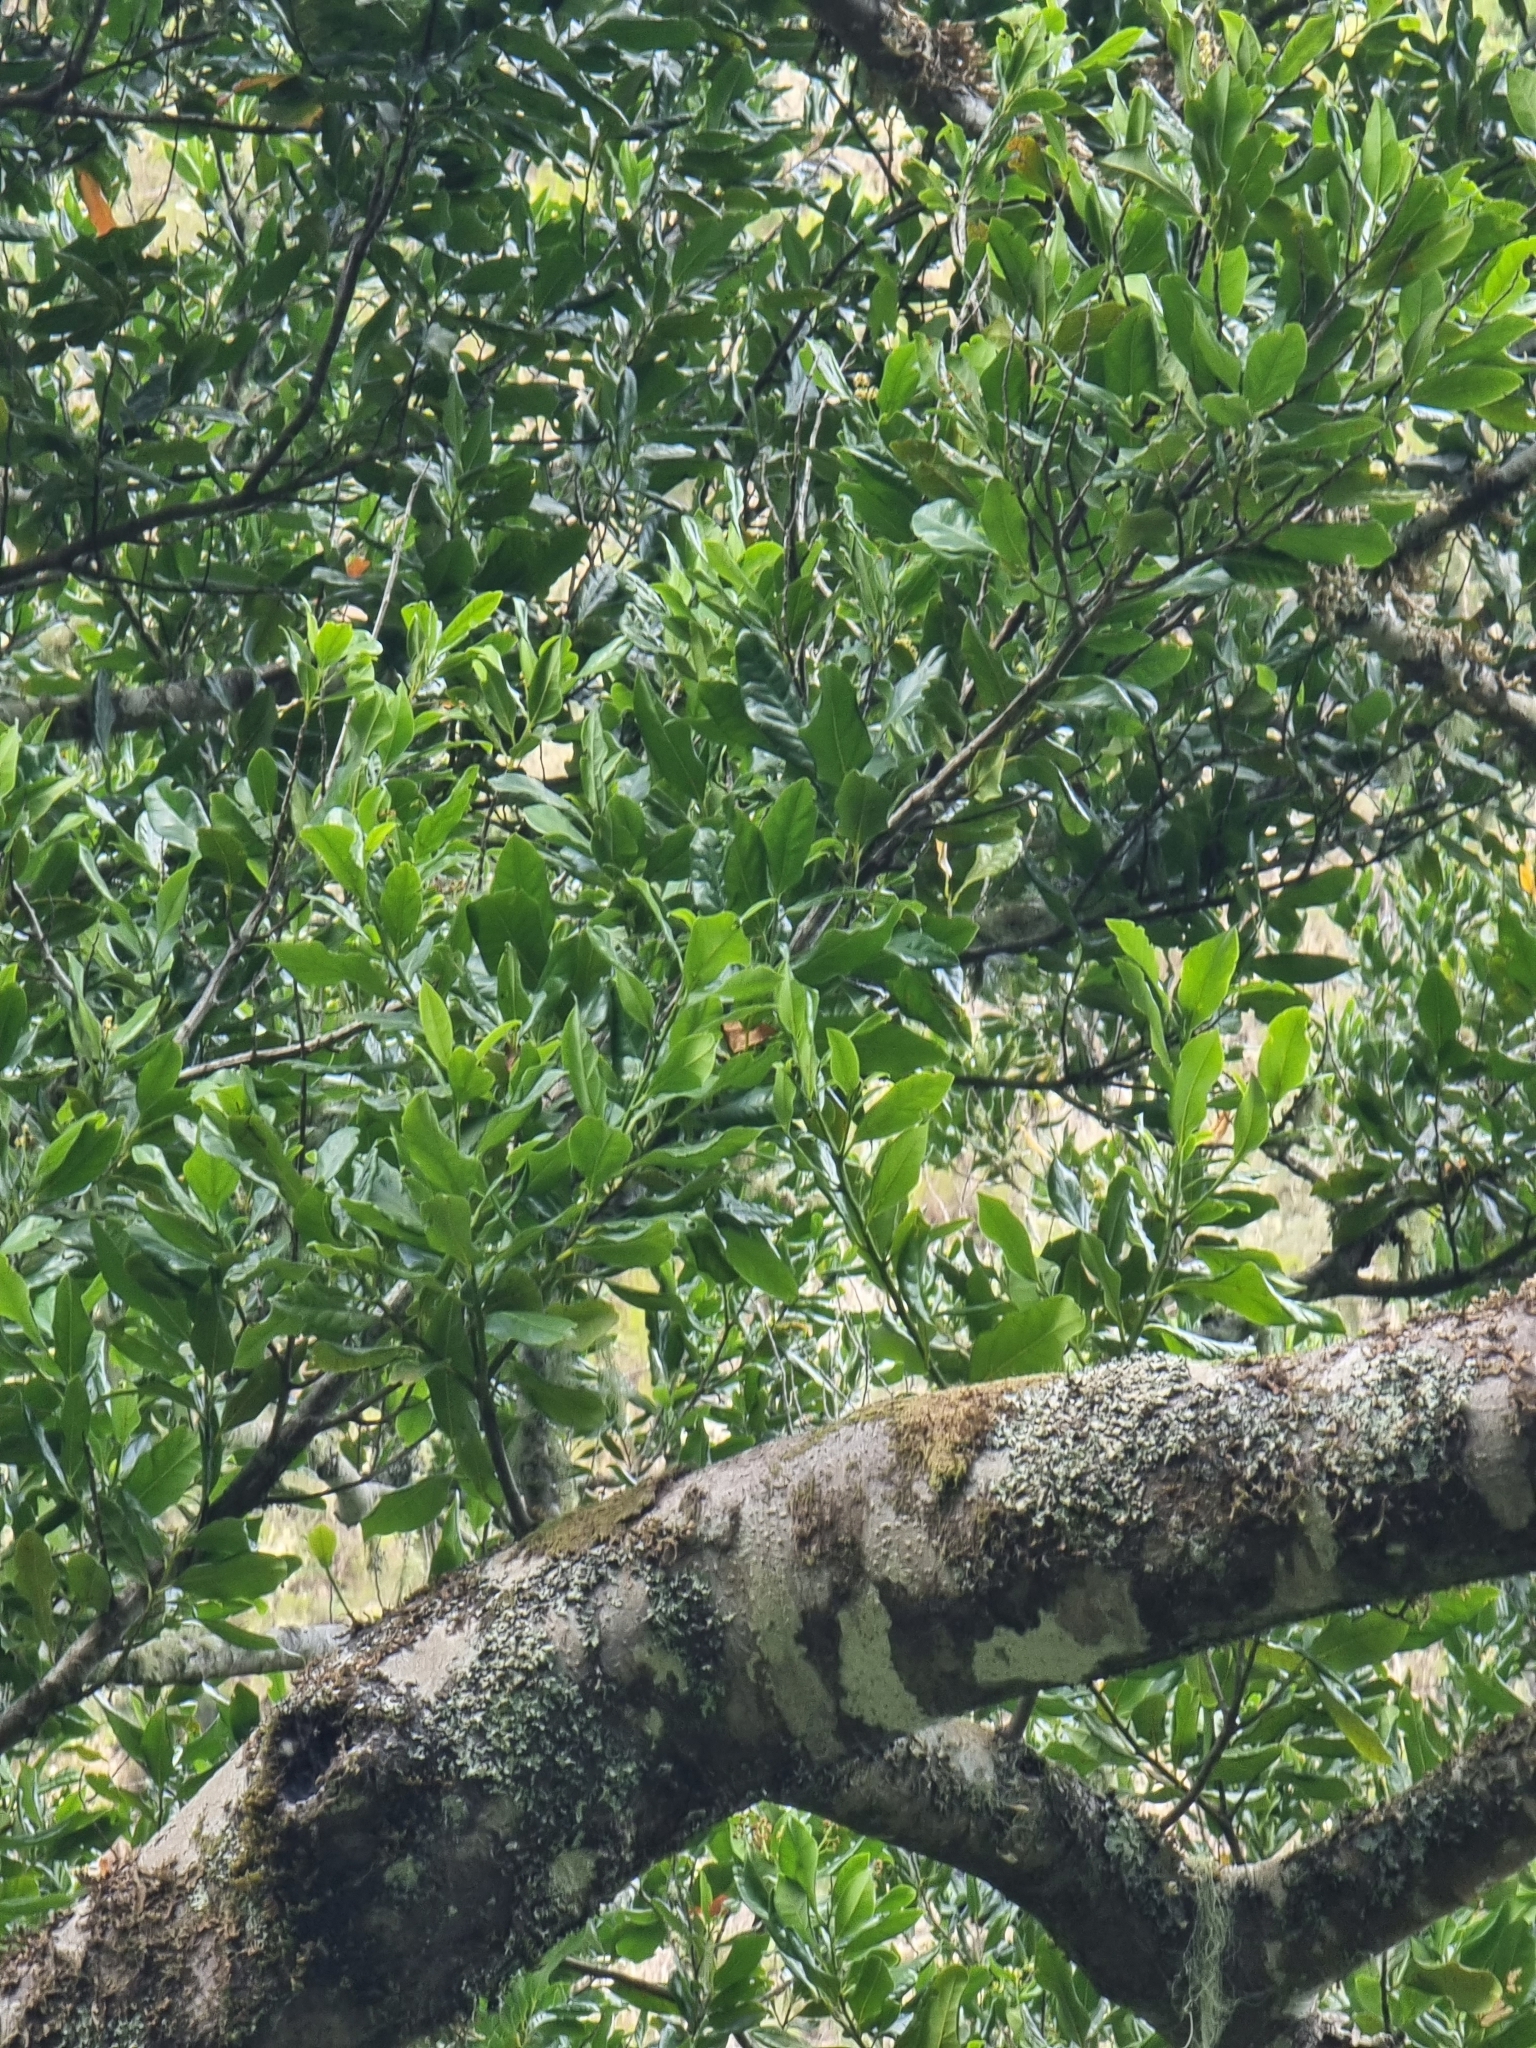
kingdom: Plantae
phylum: Tracheophyta
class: Magnoliopsida
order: Laurales
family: Lauraceae
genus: Mespilodaphne
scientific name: Mespilodaphne foetens
